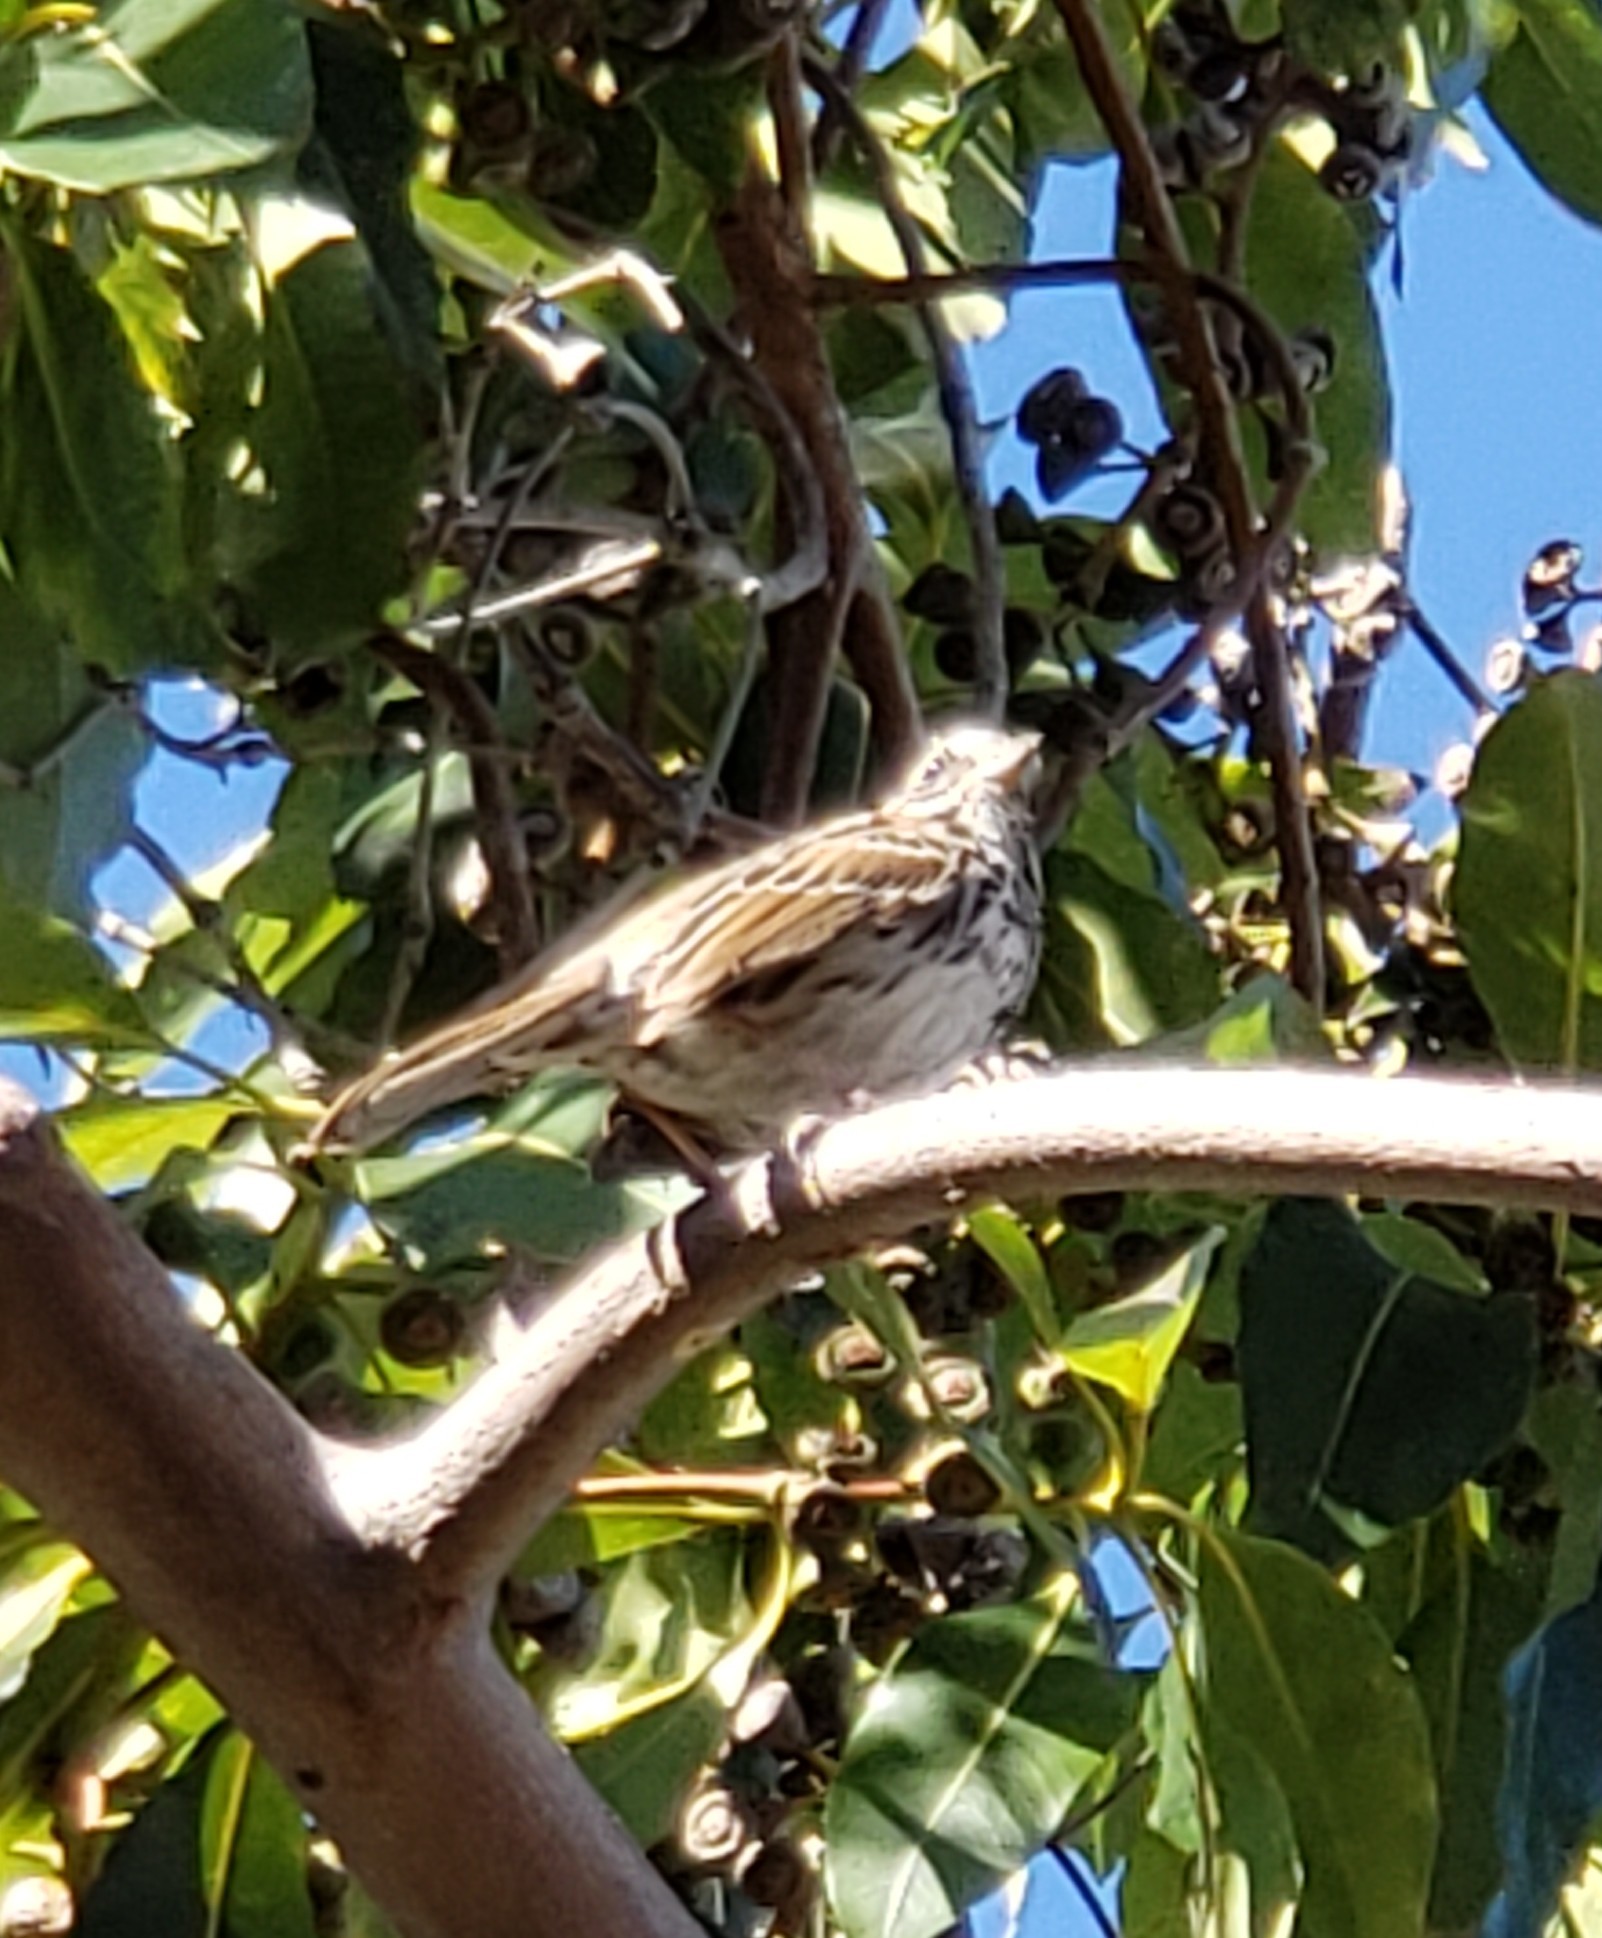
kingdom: Animalia
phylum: Chordata
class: Aves
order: Passeriformes
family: Passerellidae
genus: Melospiza
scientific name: Melospiza melodia
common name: Song sparrow
